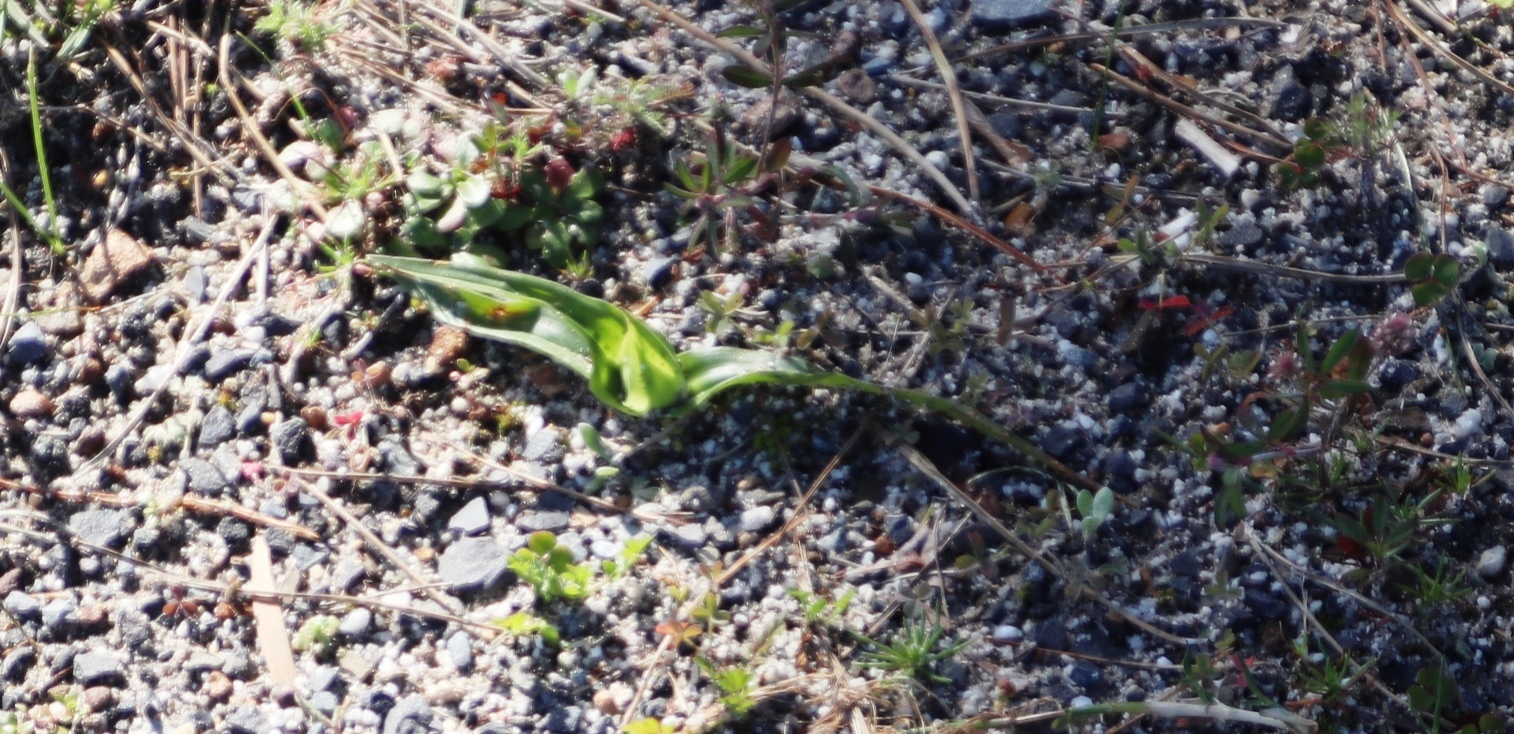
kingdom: Plantae
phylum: Tracheophyta
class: Liliopsida
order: Liliales
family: Colchicaceae
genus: Colchicum
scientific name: Colchicum eucomoides
